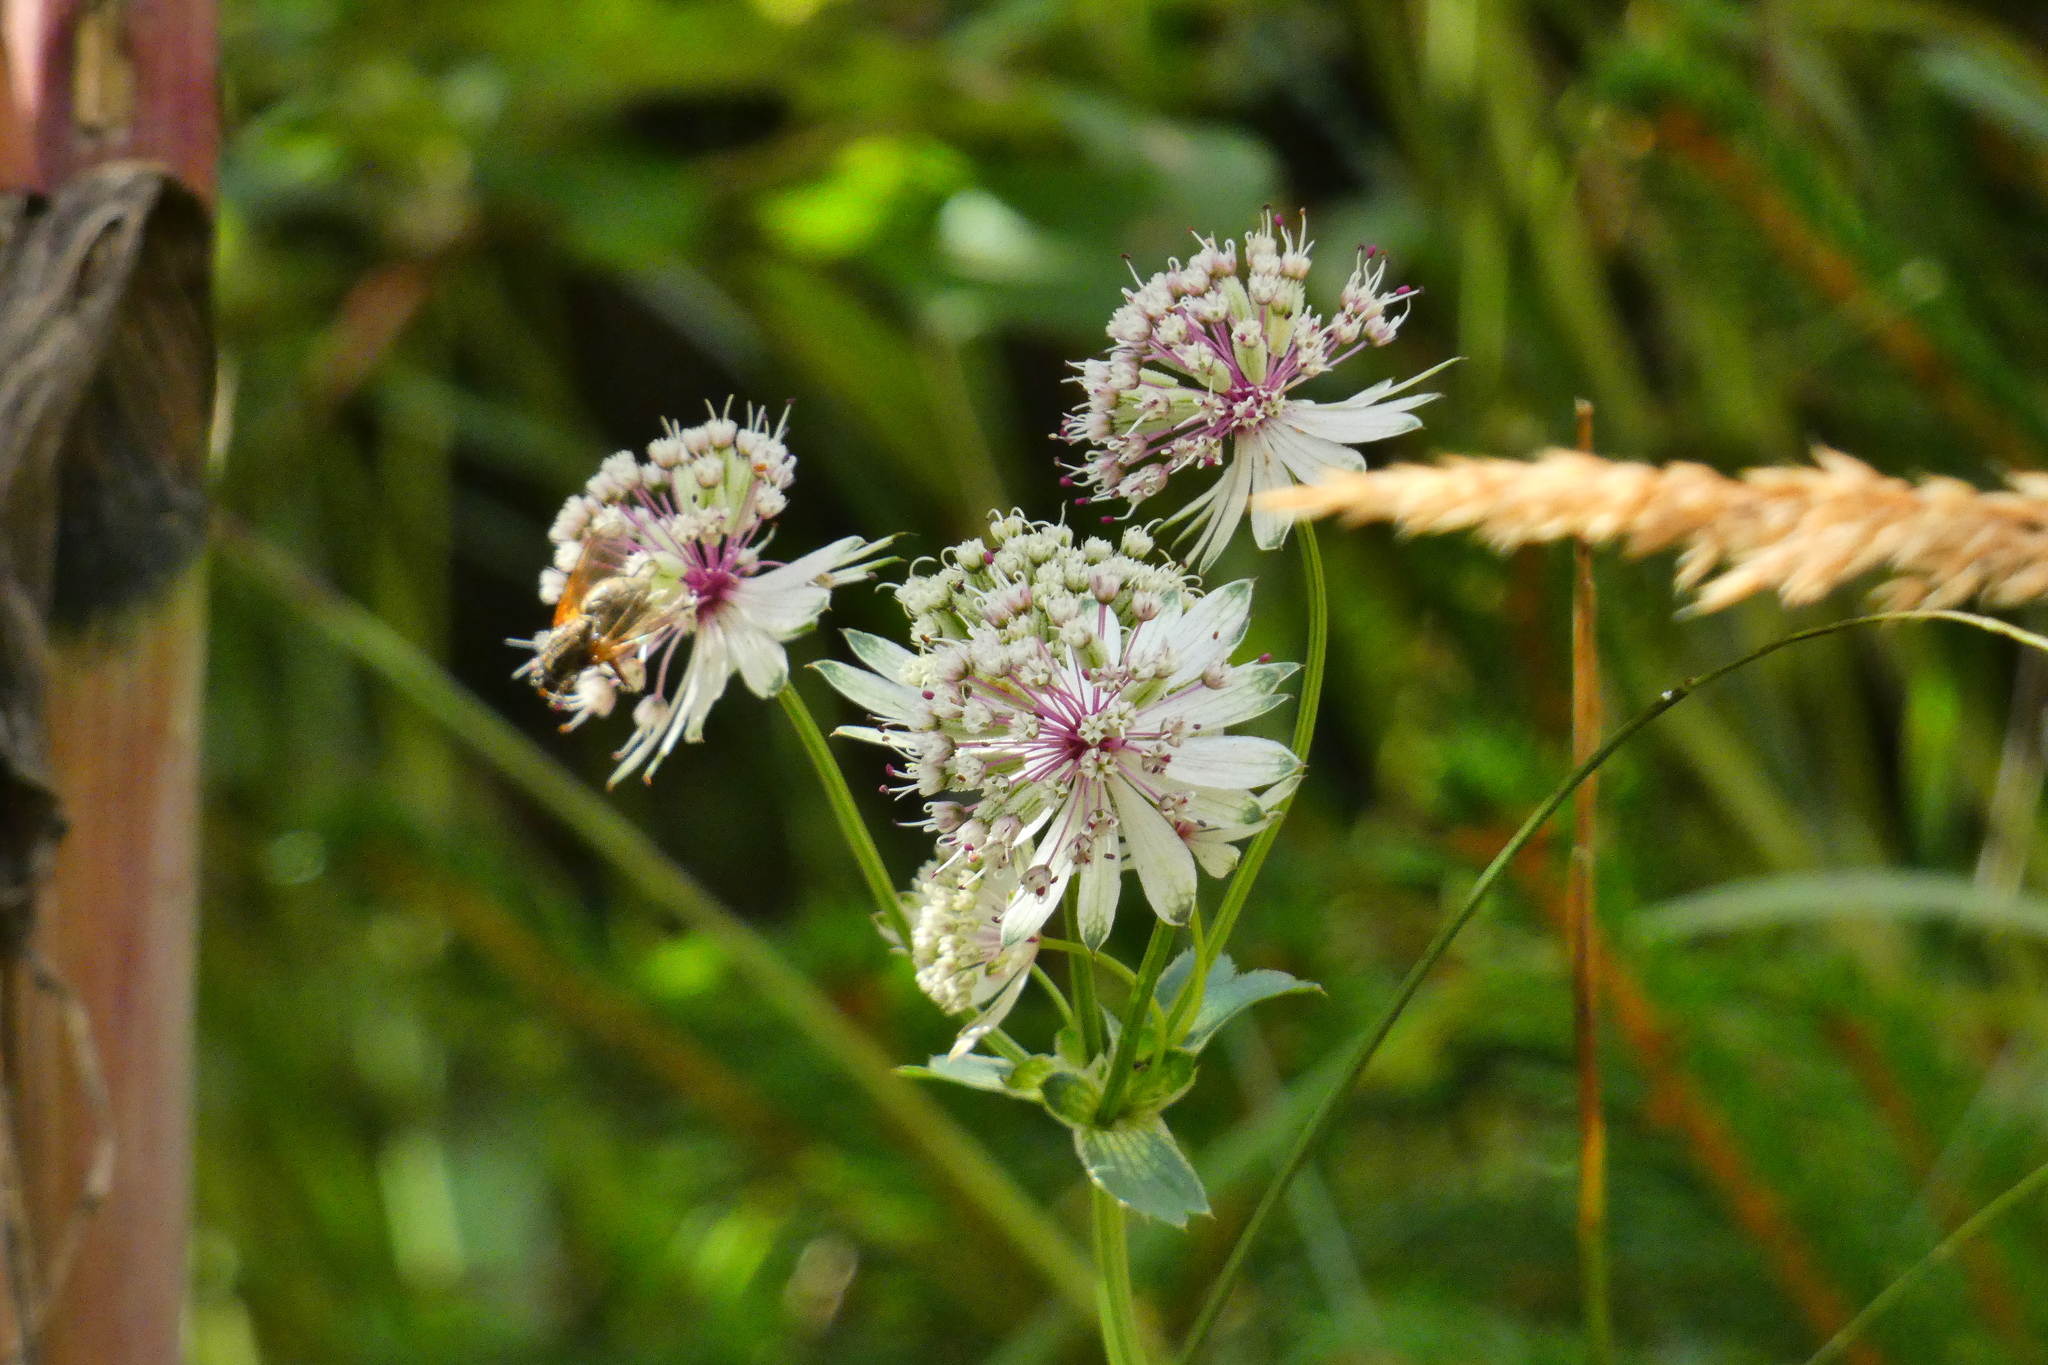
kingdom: Plantae
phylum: Tracheophyta
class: Magnoliopsida
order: Apiales
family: Apiaceae
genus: Astrantia
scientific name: Astrantia major
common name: Greater masterwort
